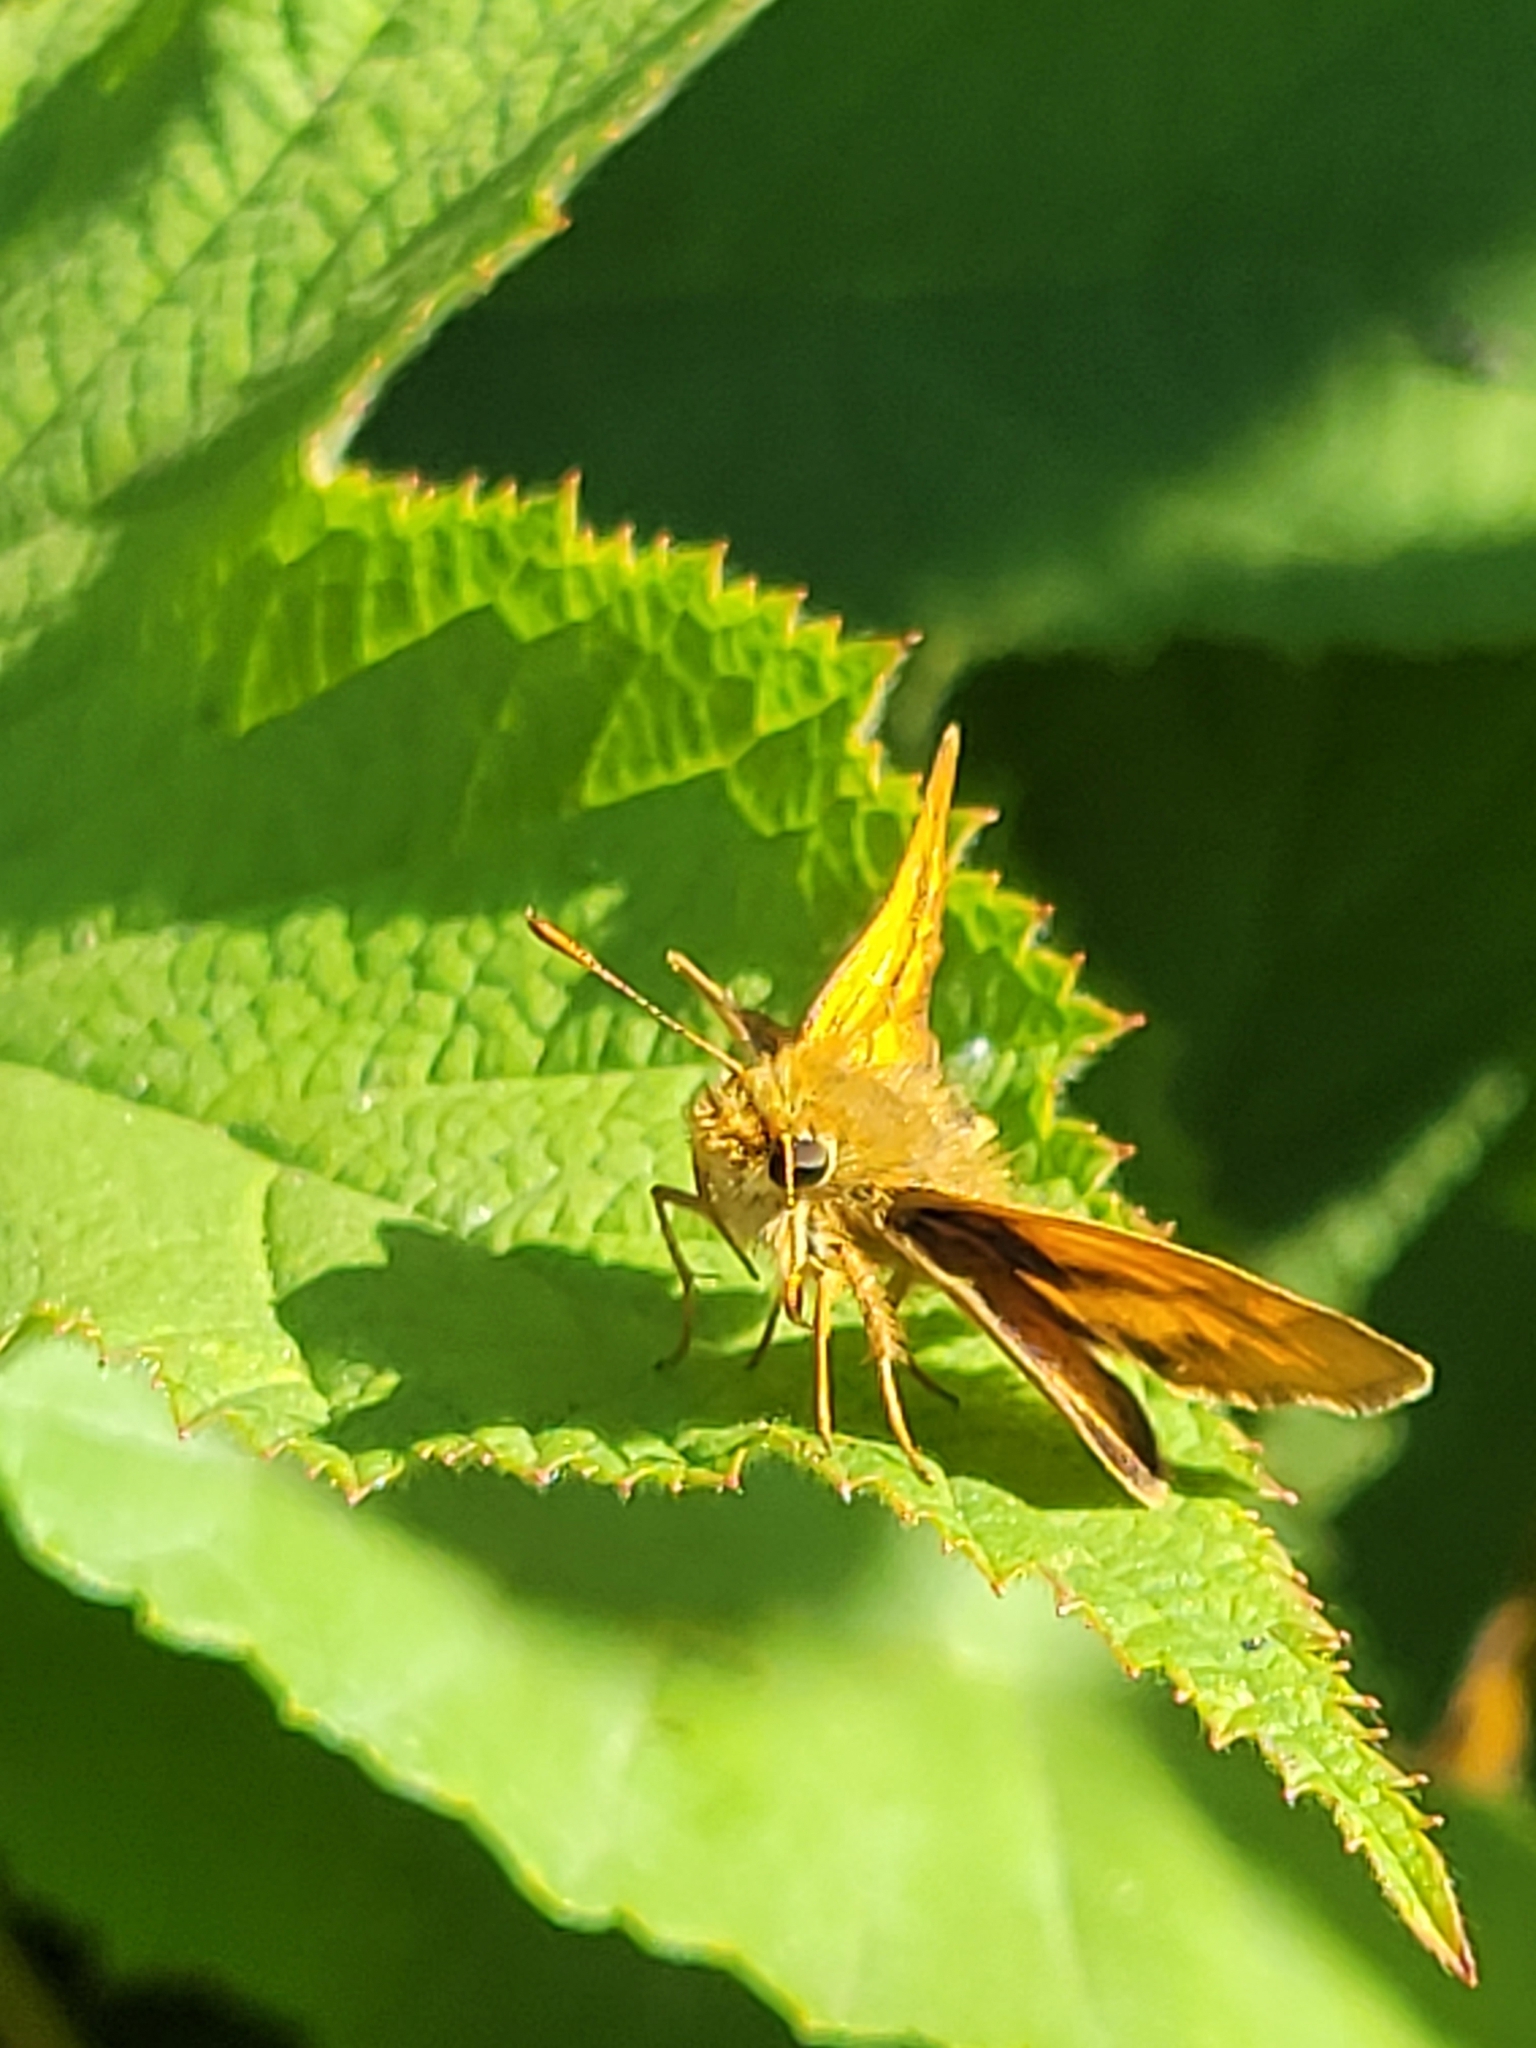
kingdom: Animalia
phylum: Arthropoda
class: Insecta
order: Lepidoptera
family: Hesperiidae
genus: Ochlodes
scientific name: Ochlodes sylvanoides
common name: Woodland skipper
